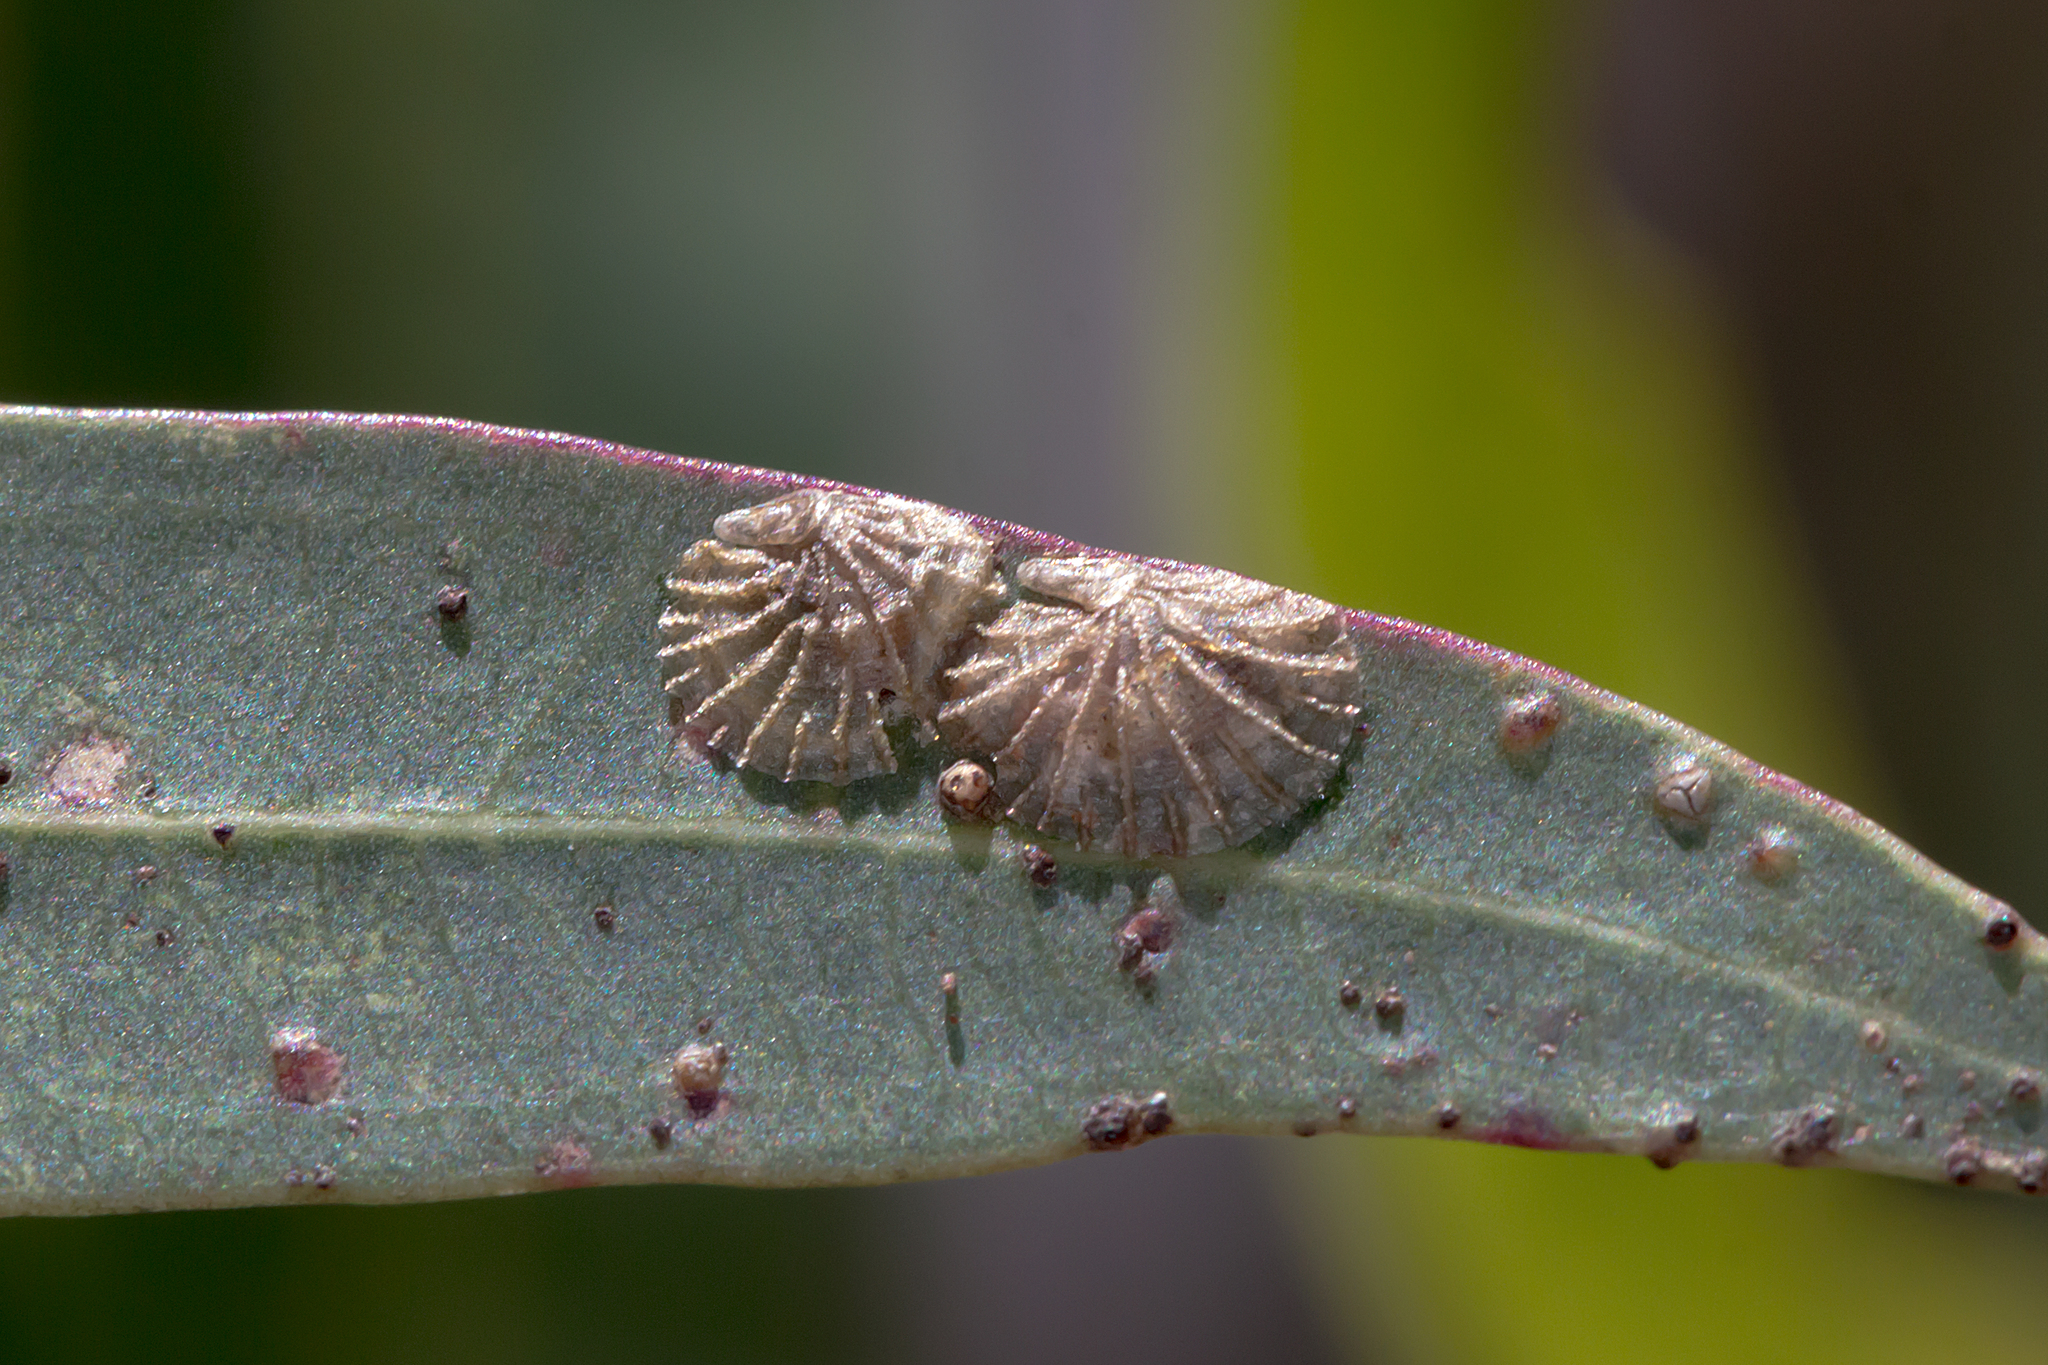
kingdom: Animalia
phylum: Arthropoda
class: Insecta
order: Hemiptera
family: Aphalaridae
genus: Creiis
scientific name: Creiis costatus
